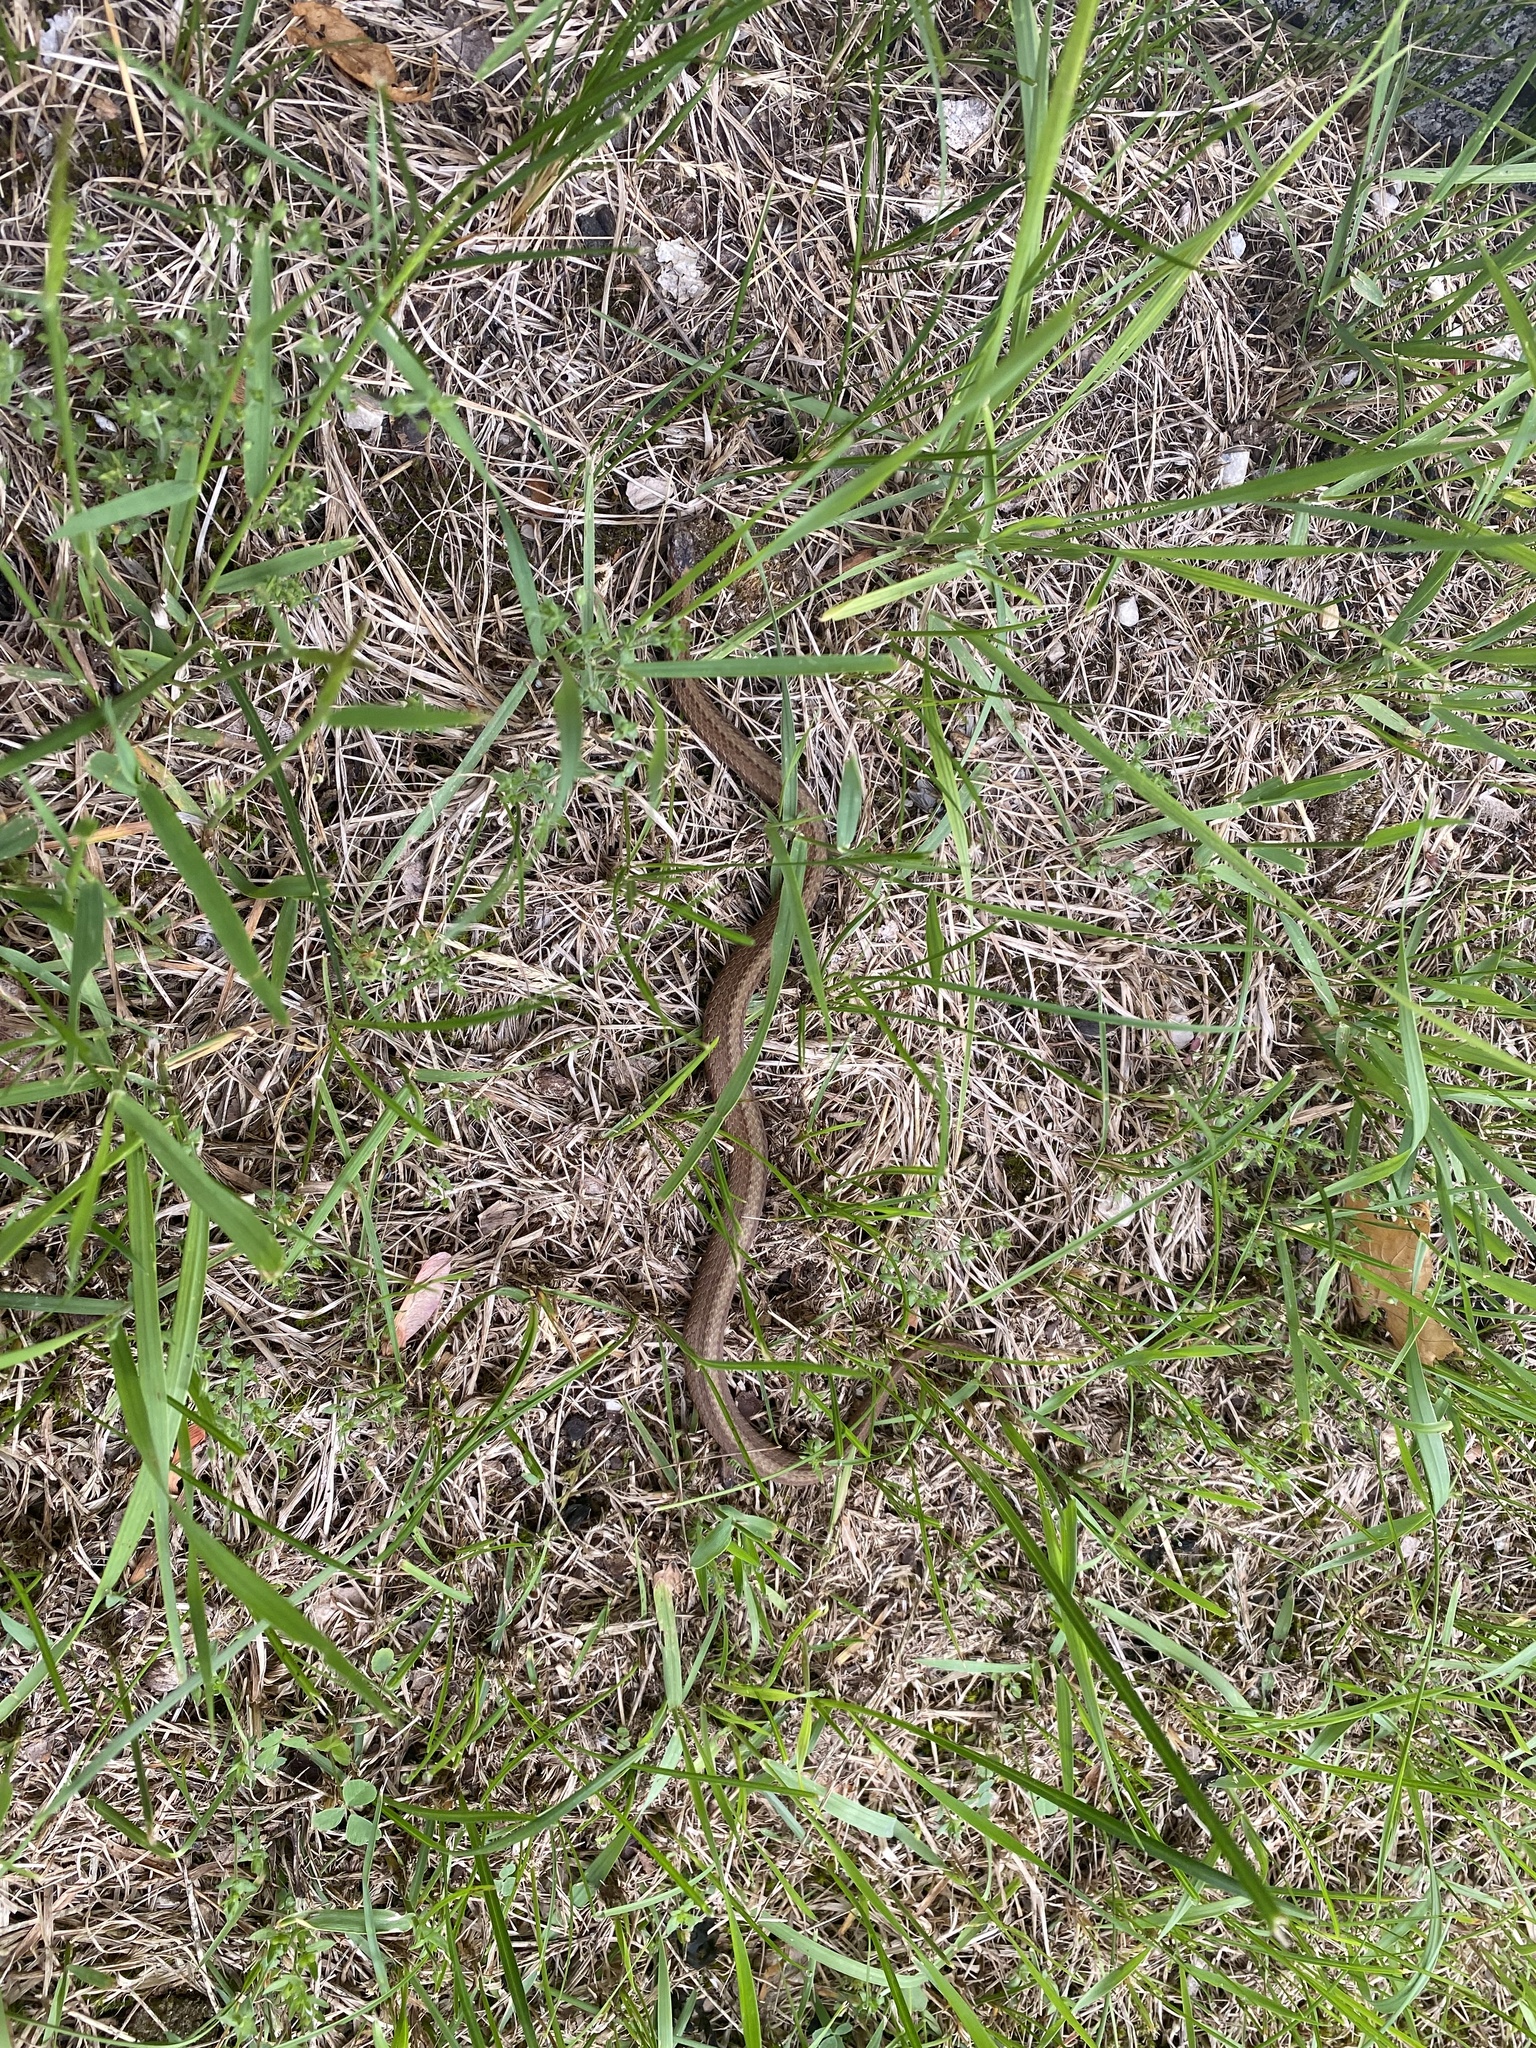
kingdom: Animalia
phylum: Chordata
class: Squamata
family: Colubridae
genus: Storeria
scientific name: Storeria occipitomaculata
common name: Redbelly snake
